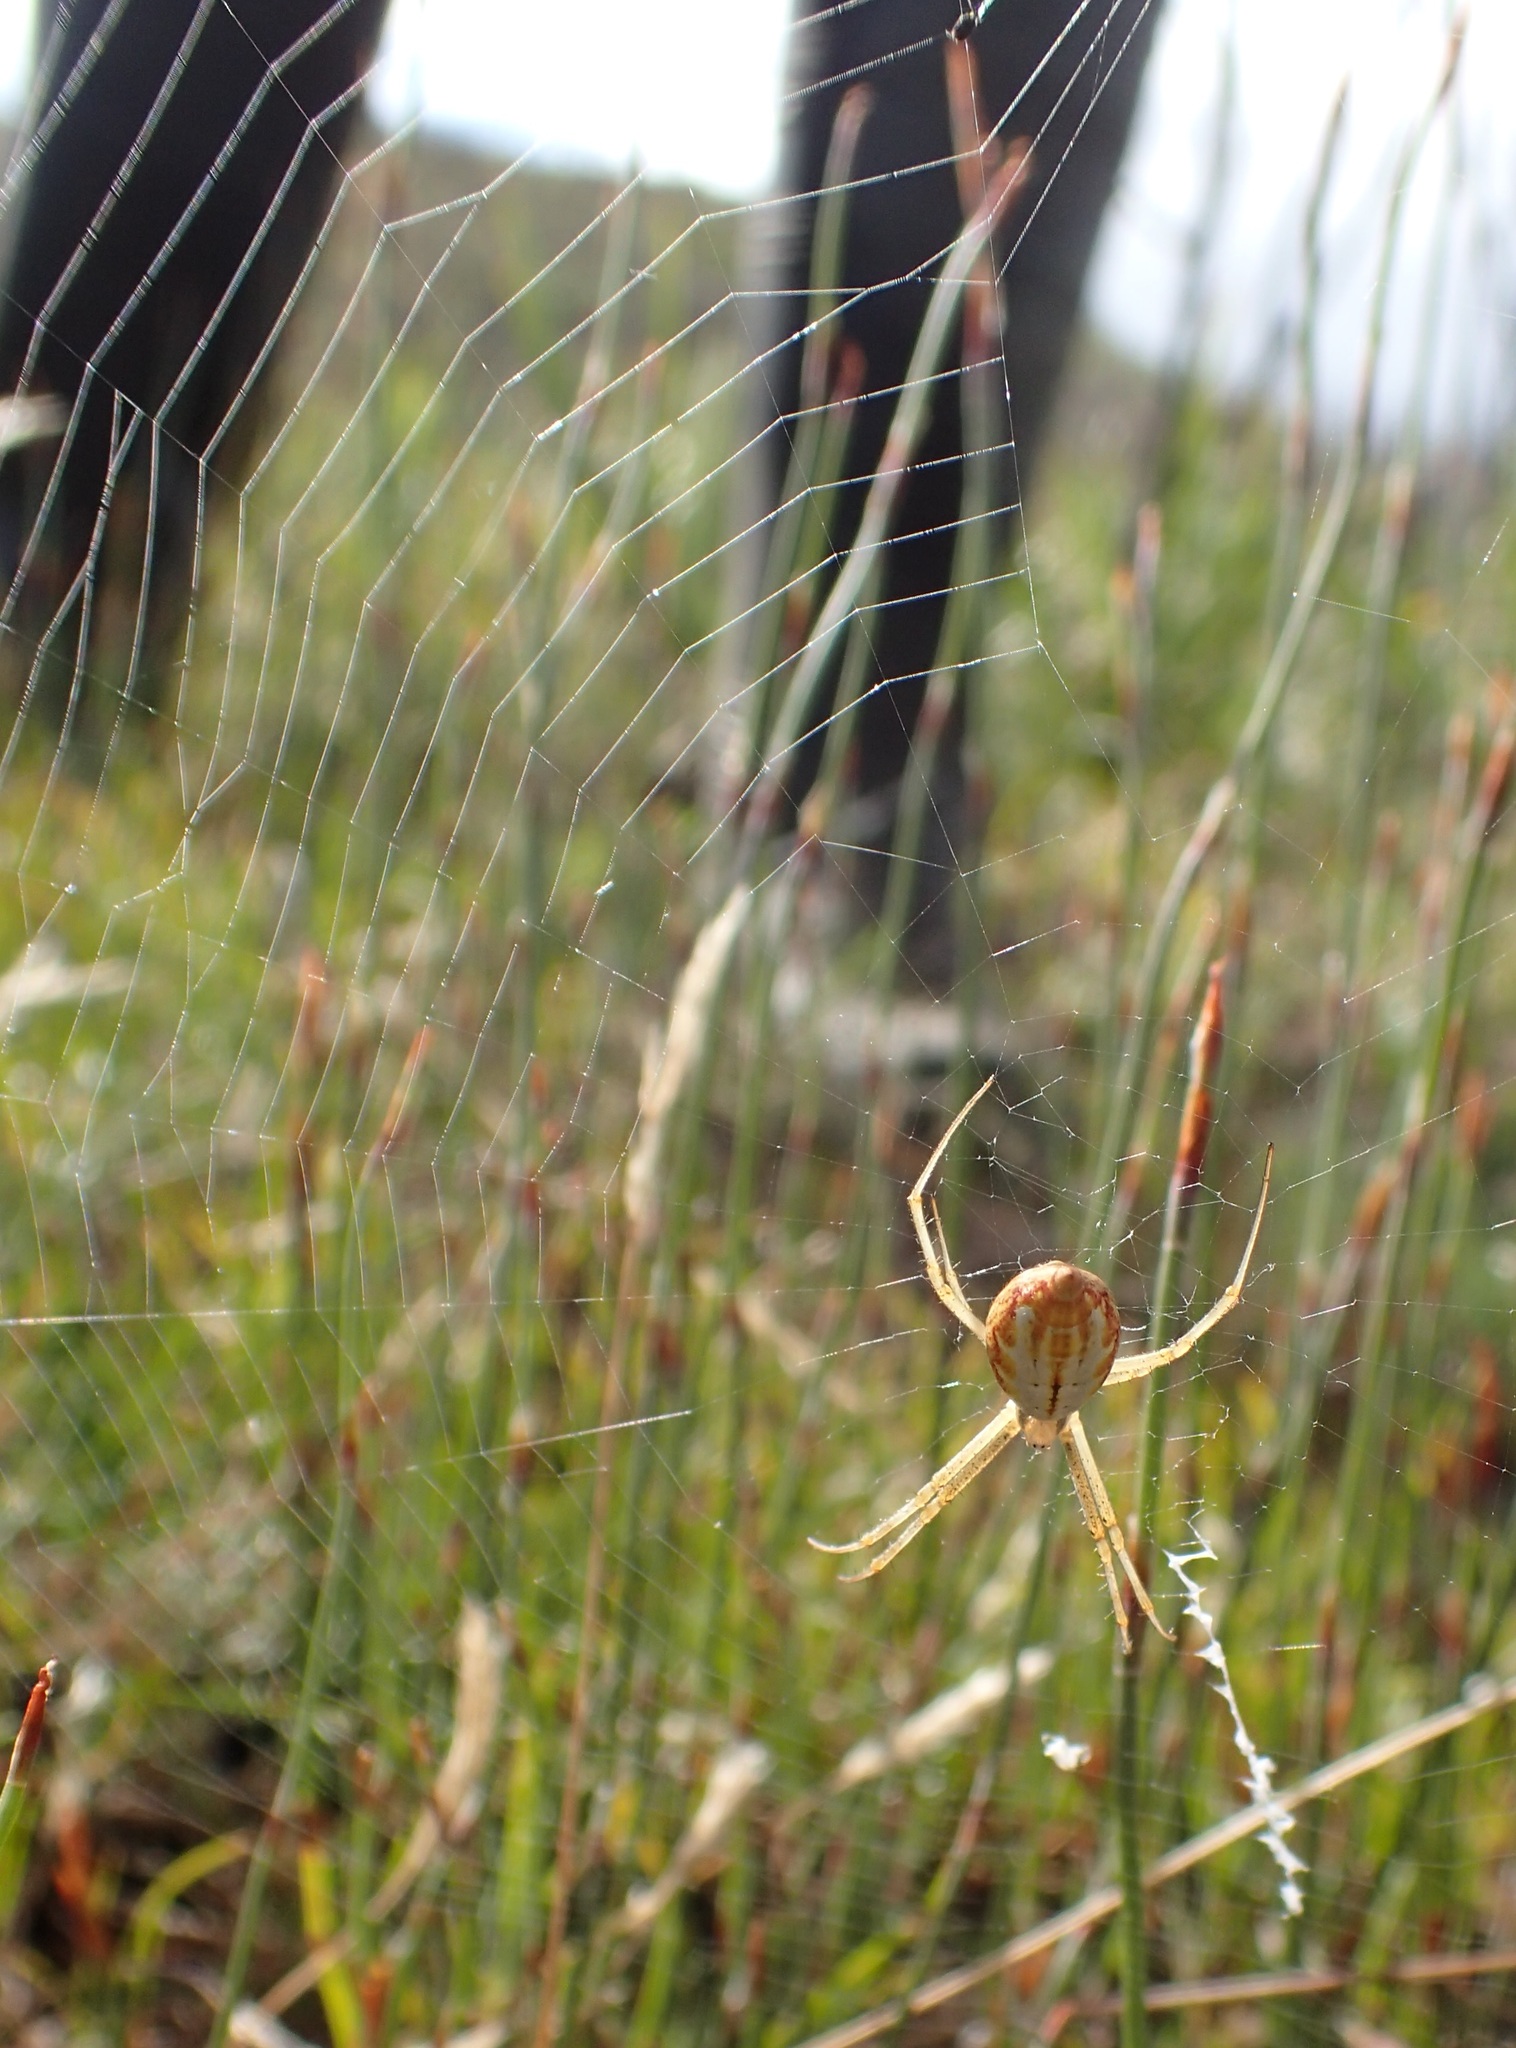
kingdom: Animalia
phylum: Arthropoda
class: Arachnida
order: Araneae
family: Araneidae
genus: Argiope
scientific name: Argiope protensa
